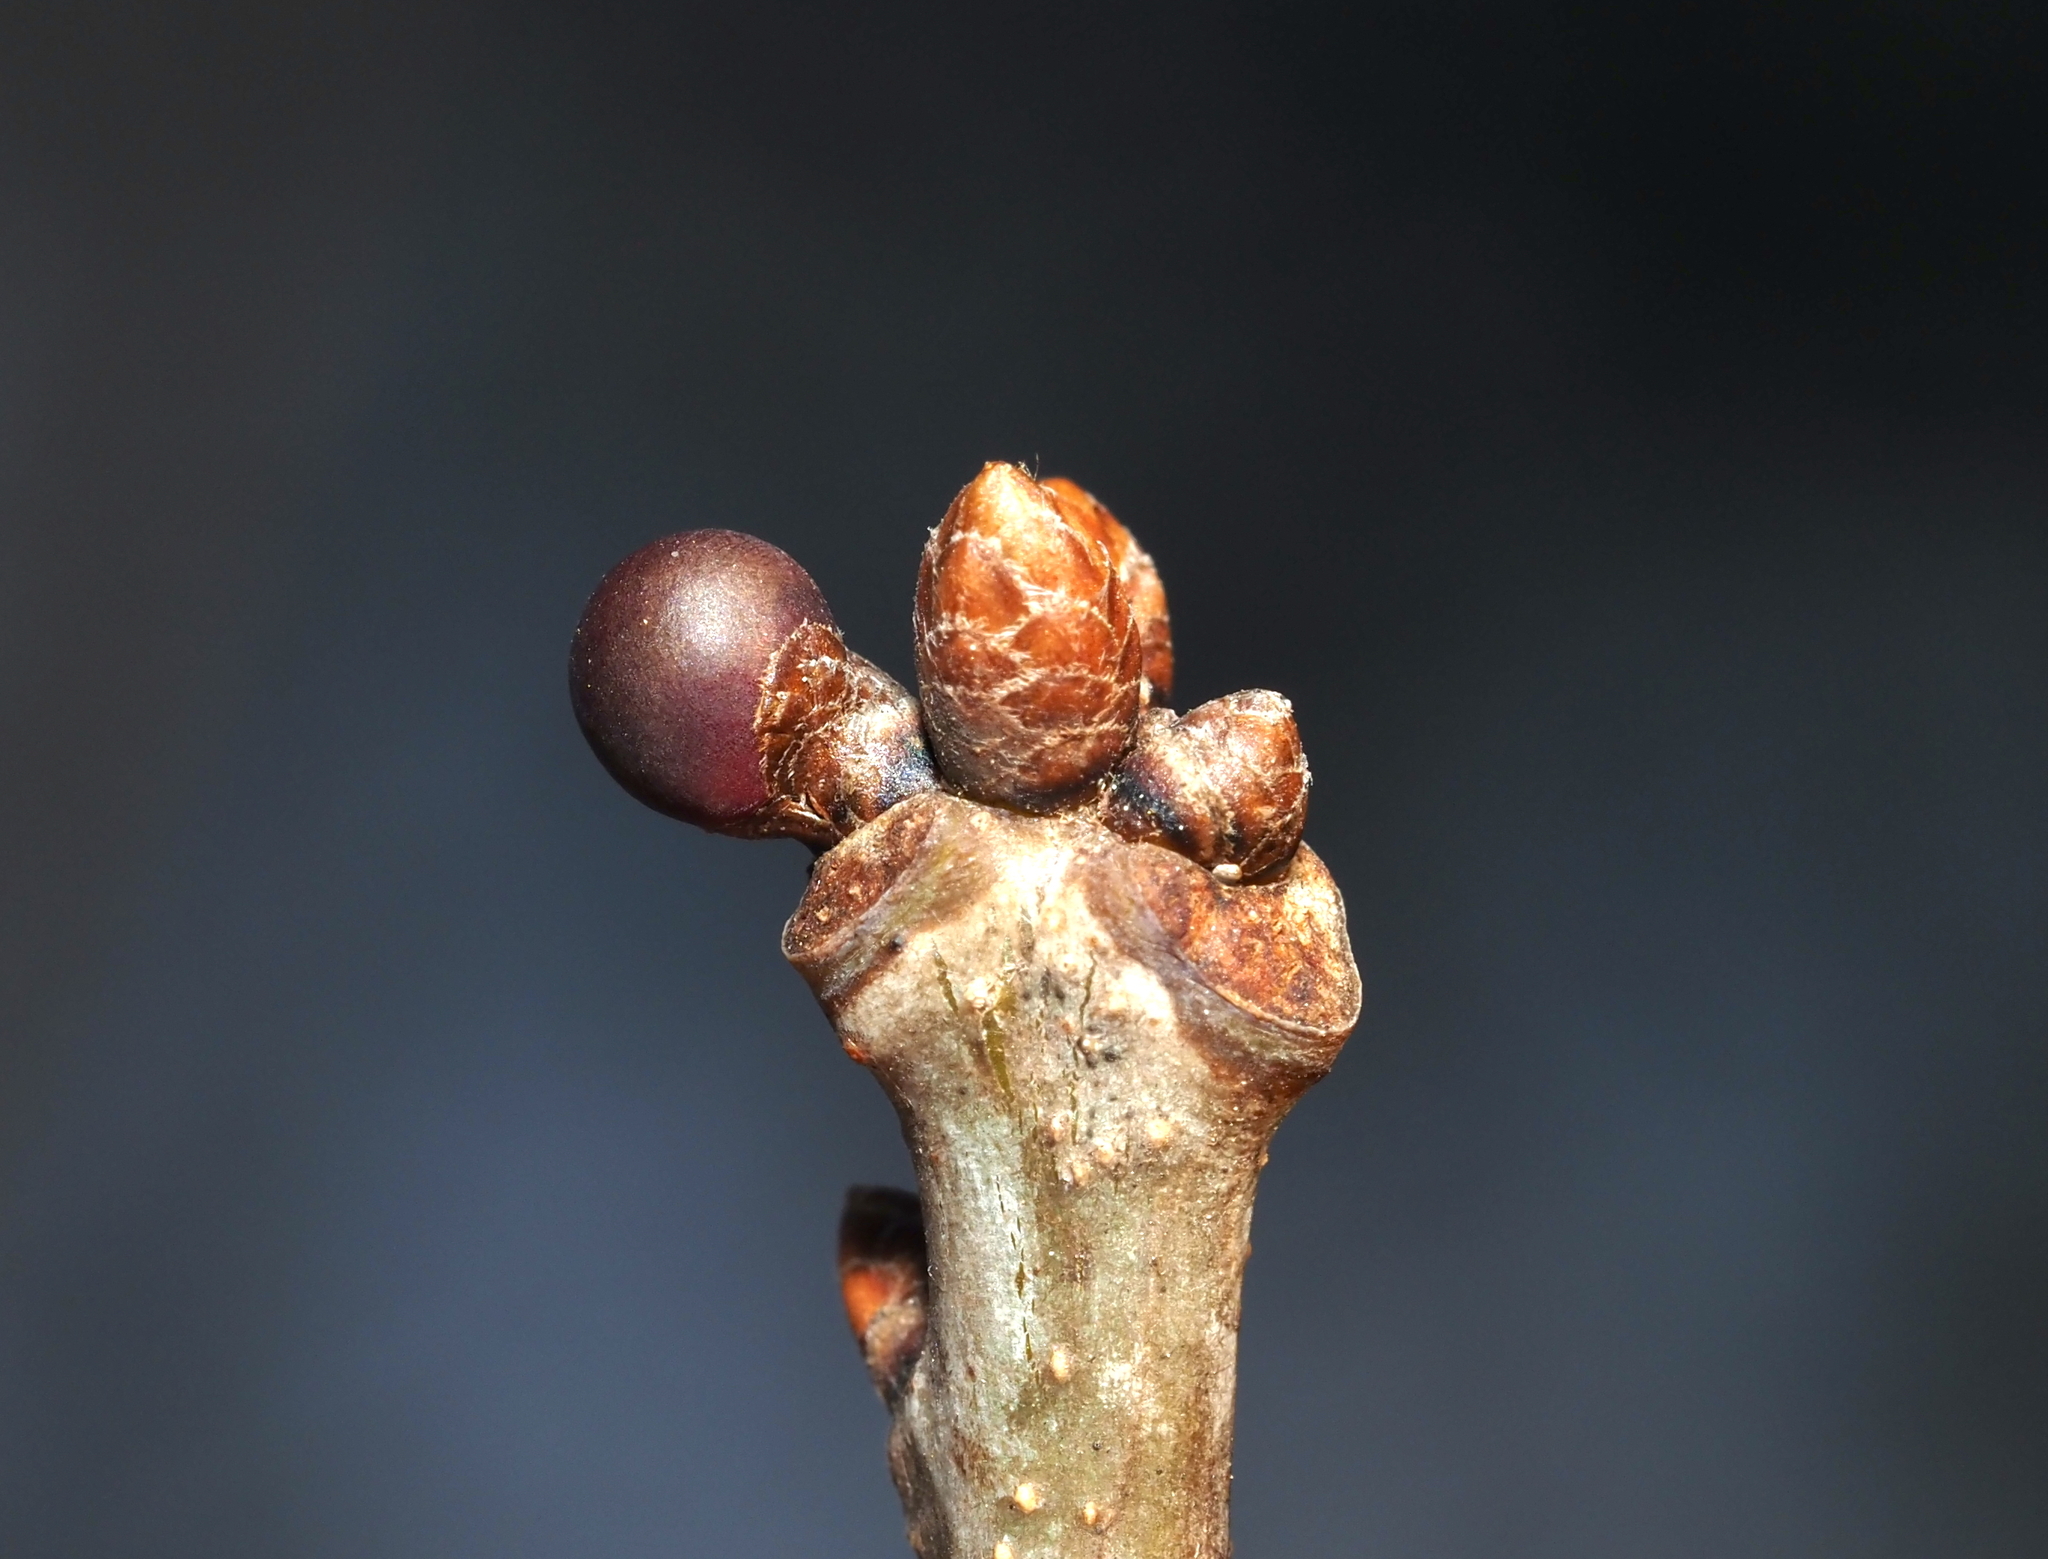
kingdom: Animalia
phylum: Arthropoda
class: Insecta
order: Hymenoptera
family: Cynipidae
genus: Neuroterus
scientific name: Neuroterus
